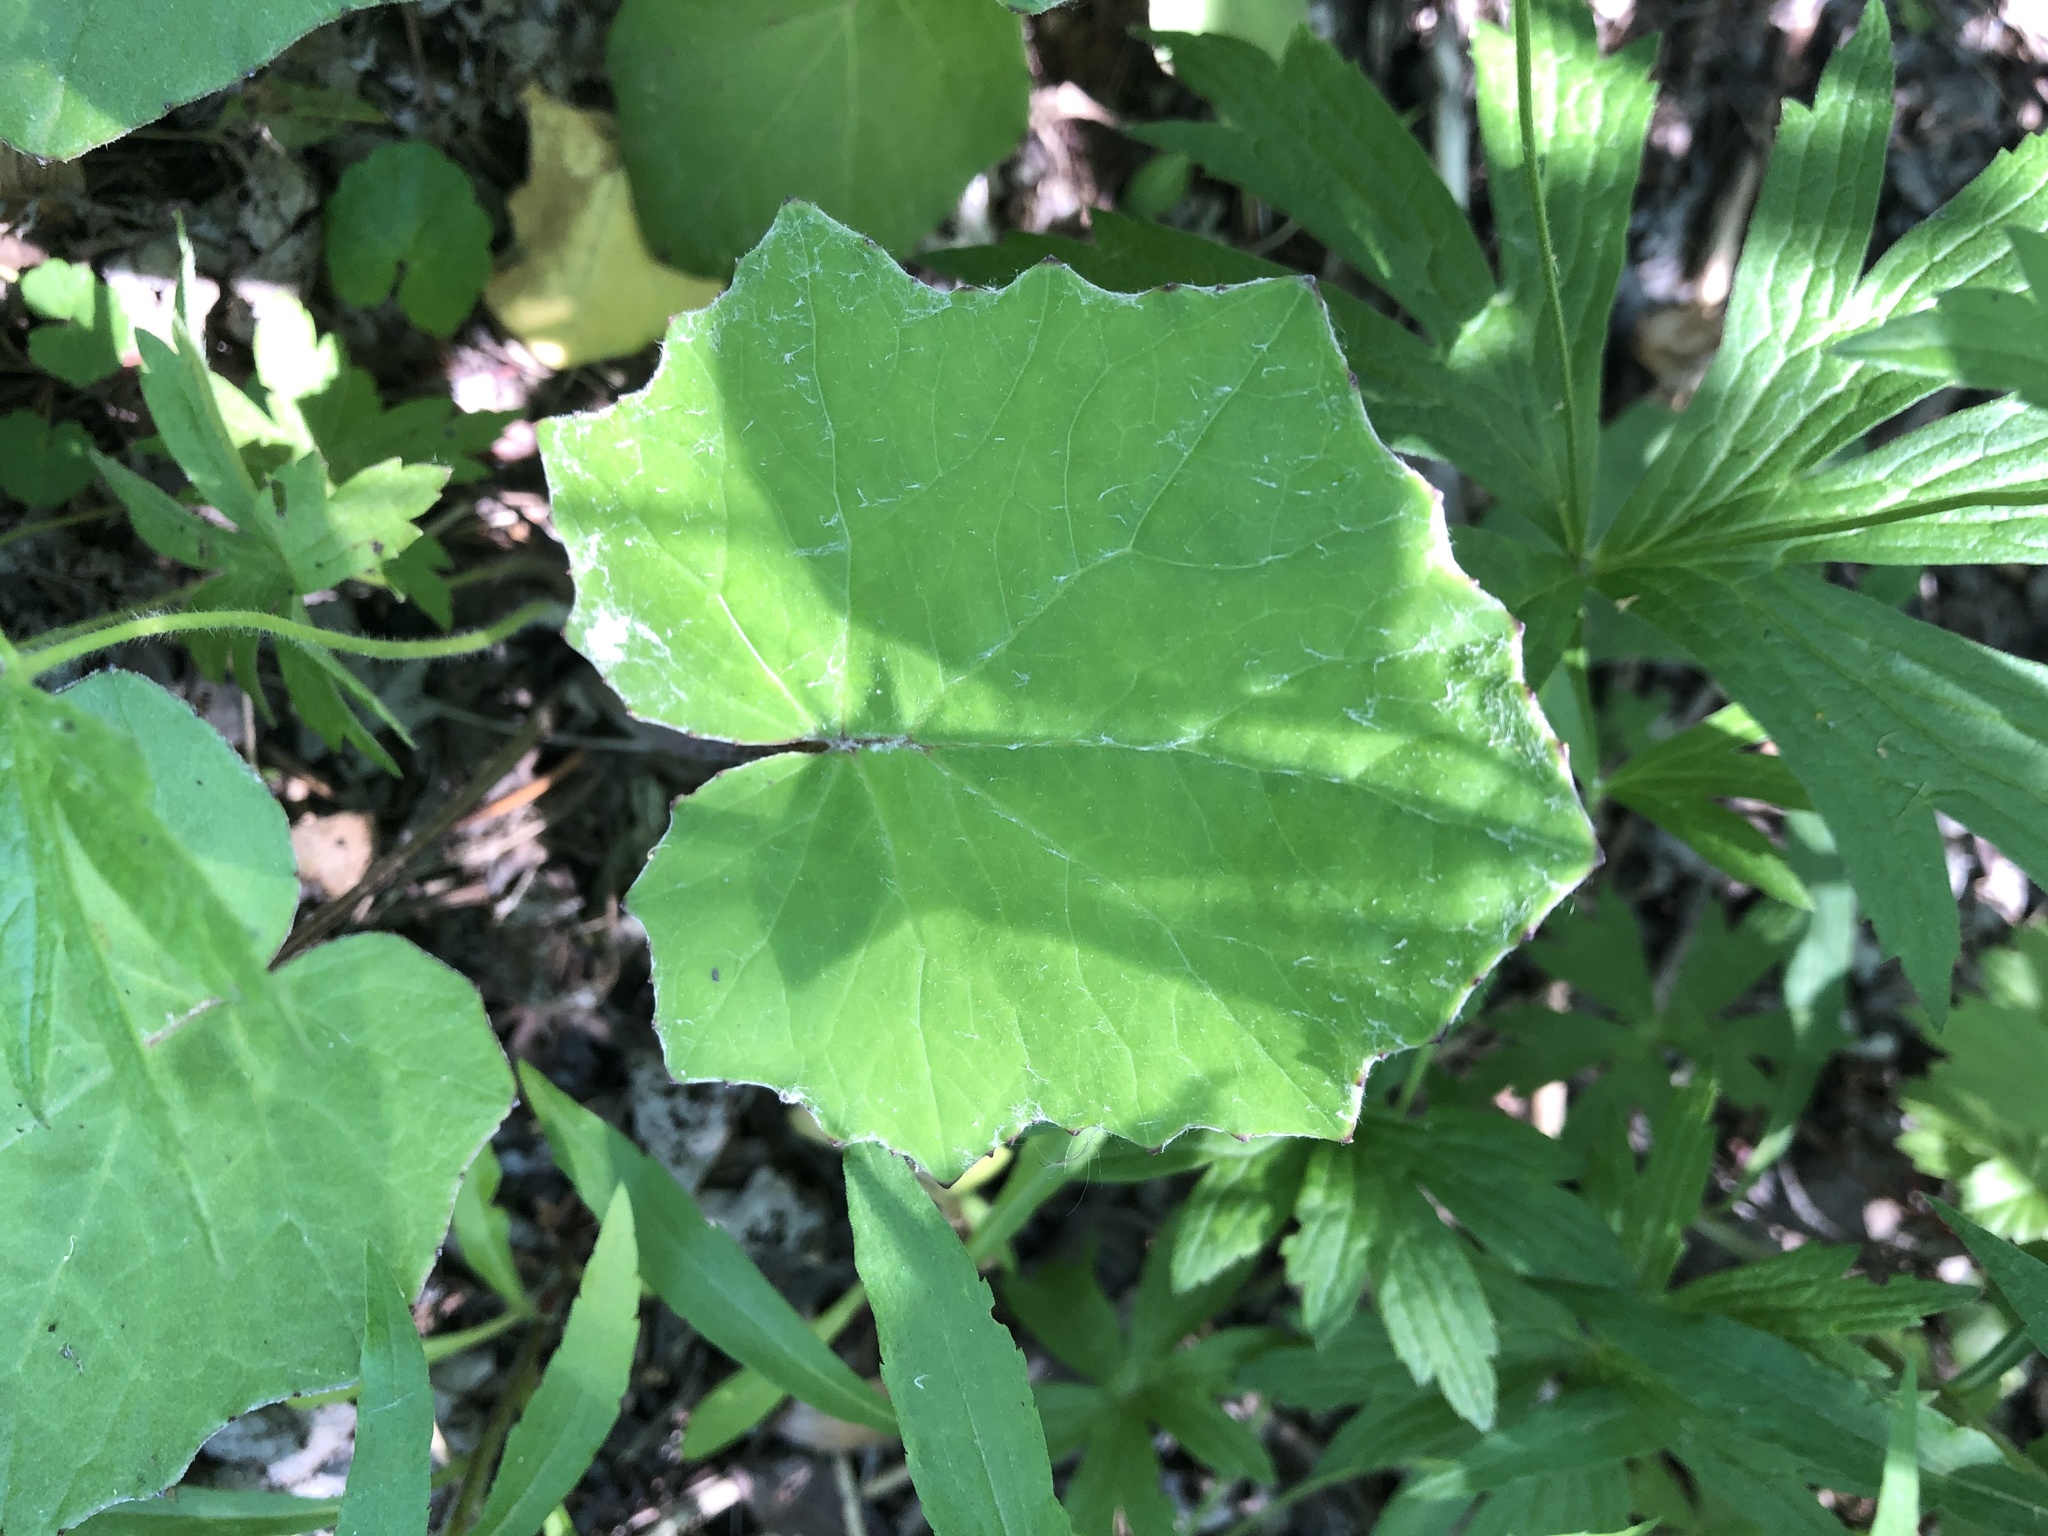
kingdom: Plantae
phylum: Tracheophyta
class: Magnoliopsida
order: Asterales
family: Asteraceae
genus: Tussilago
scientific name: Tussilago farfara
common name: Coltsfoot
